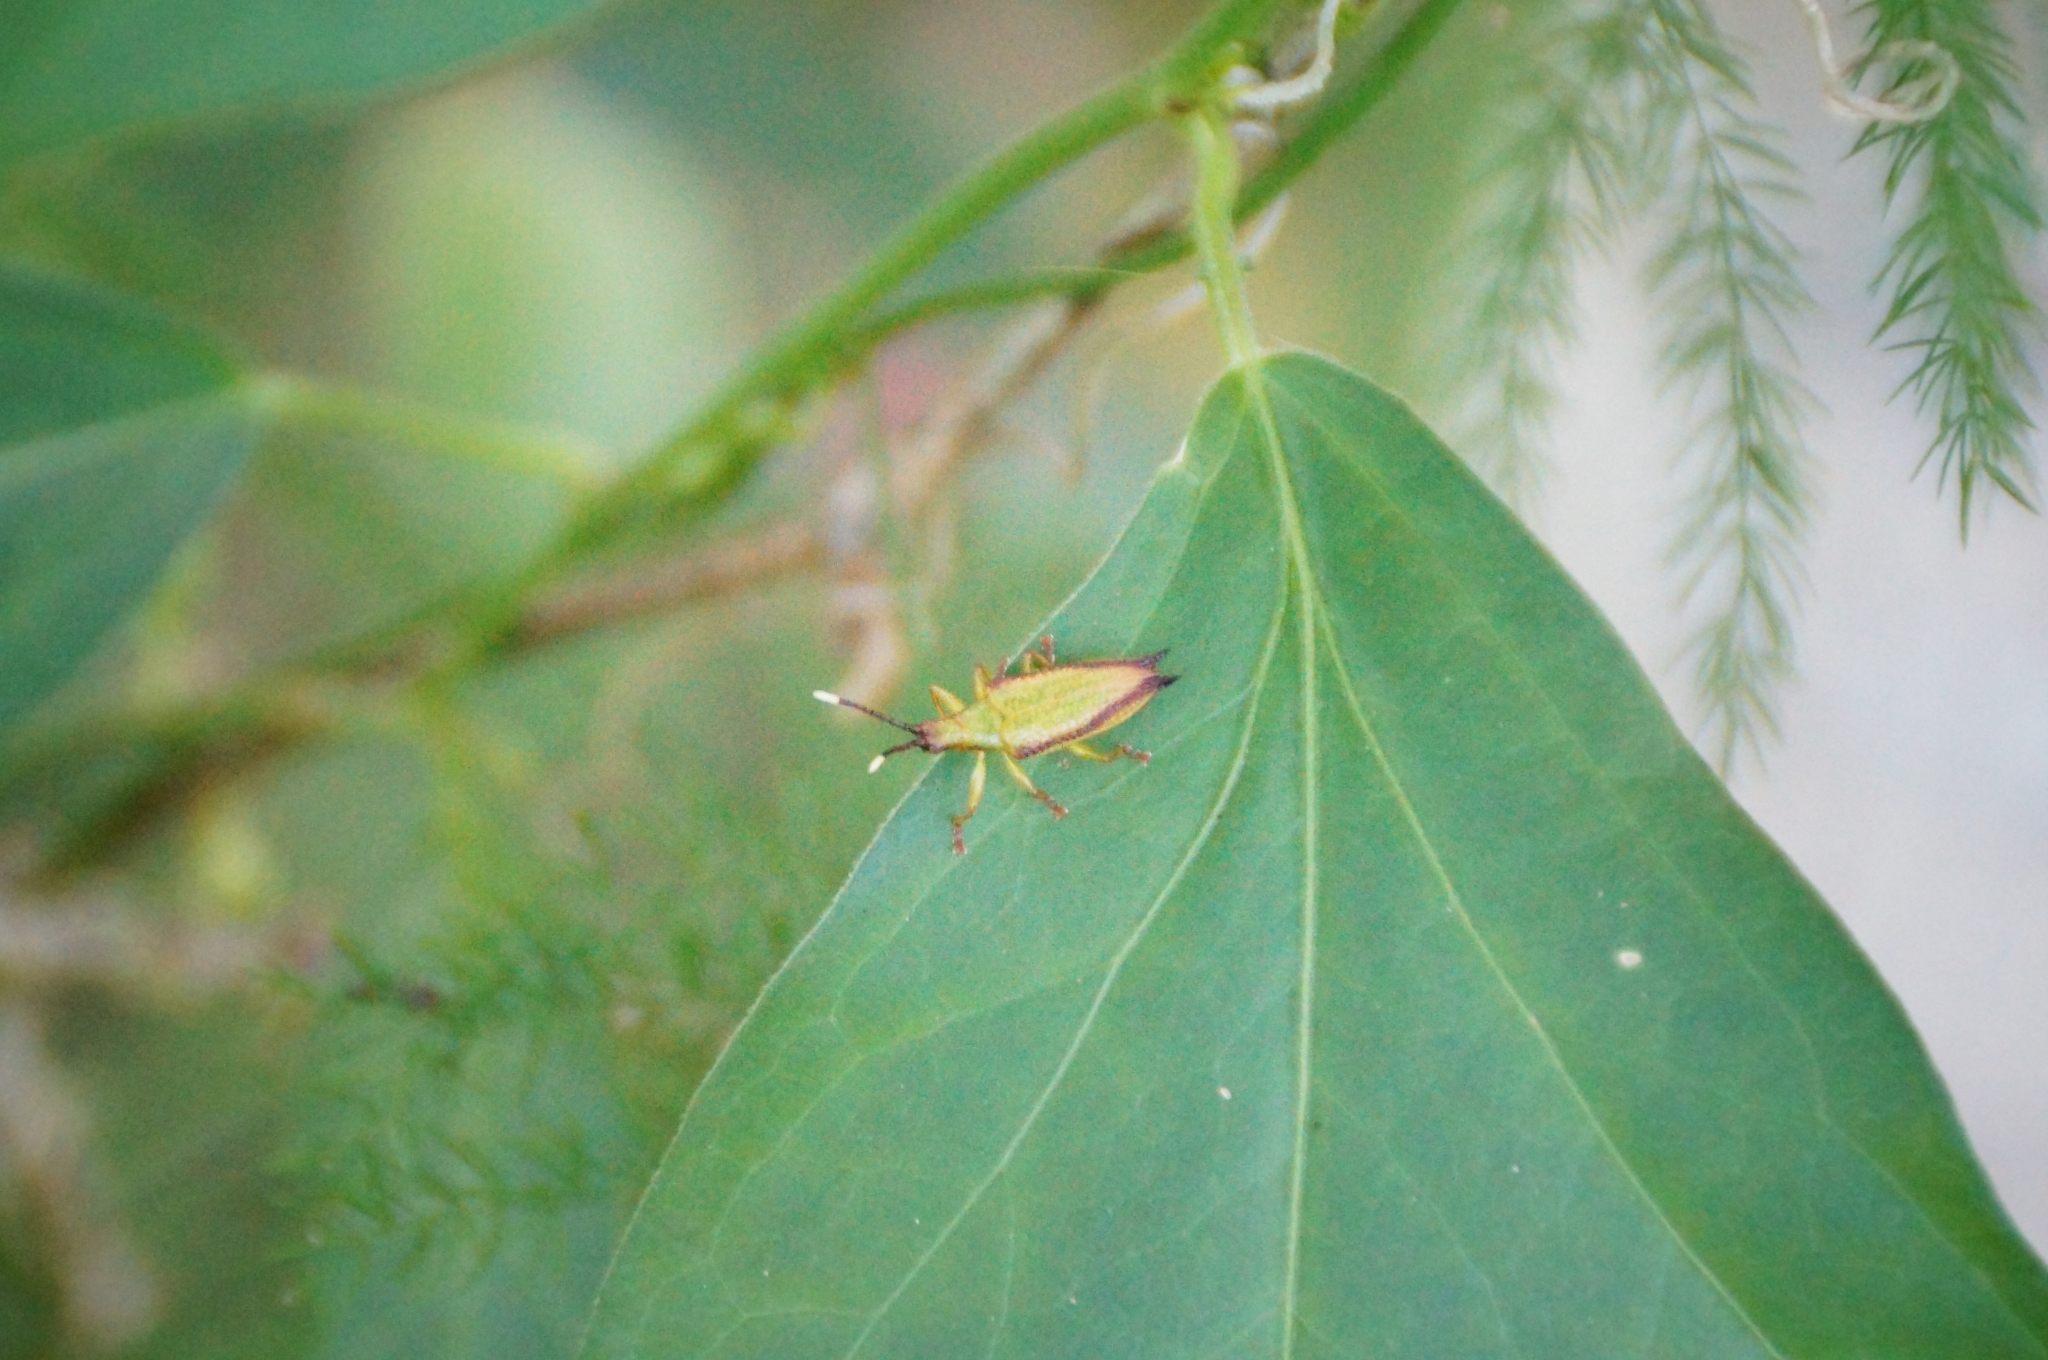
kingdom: Animalia
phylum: Arthropoda
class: Insecta
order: Coleoptera
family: Chrysomelidae
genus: Aproida
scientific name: Aproida balyi
